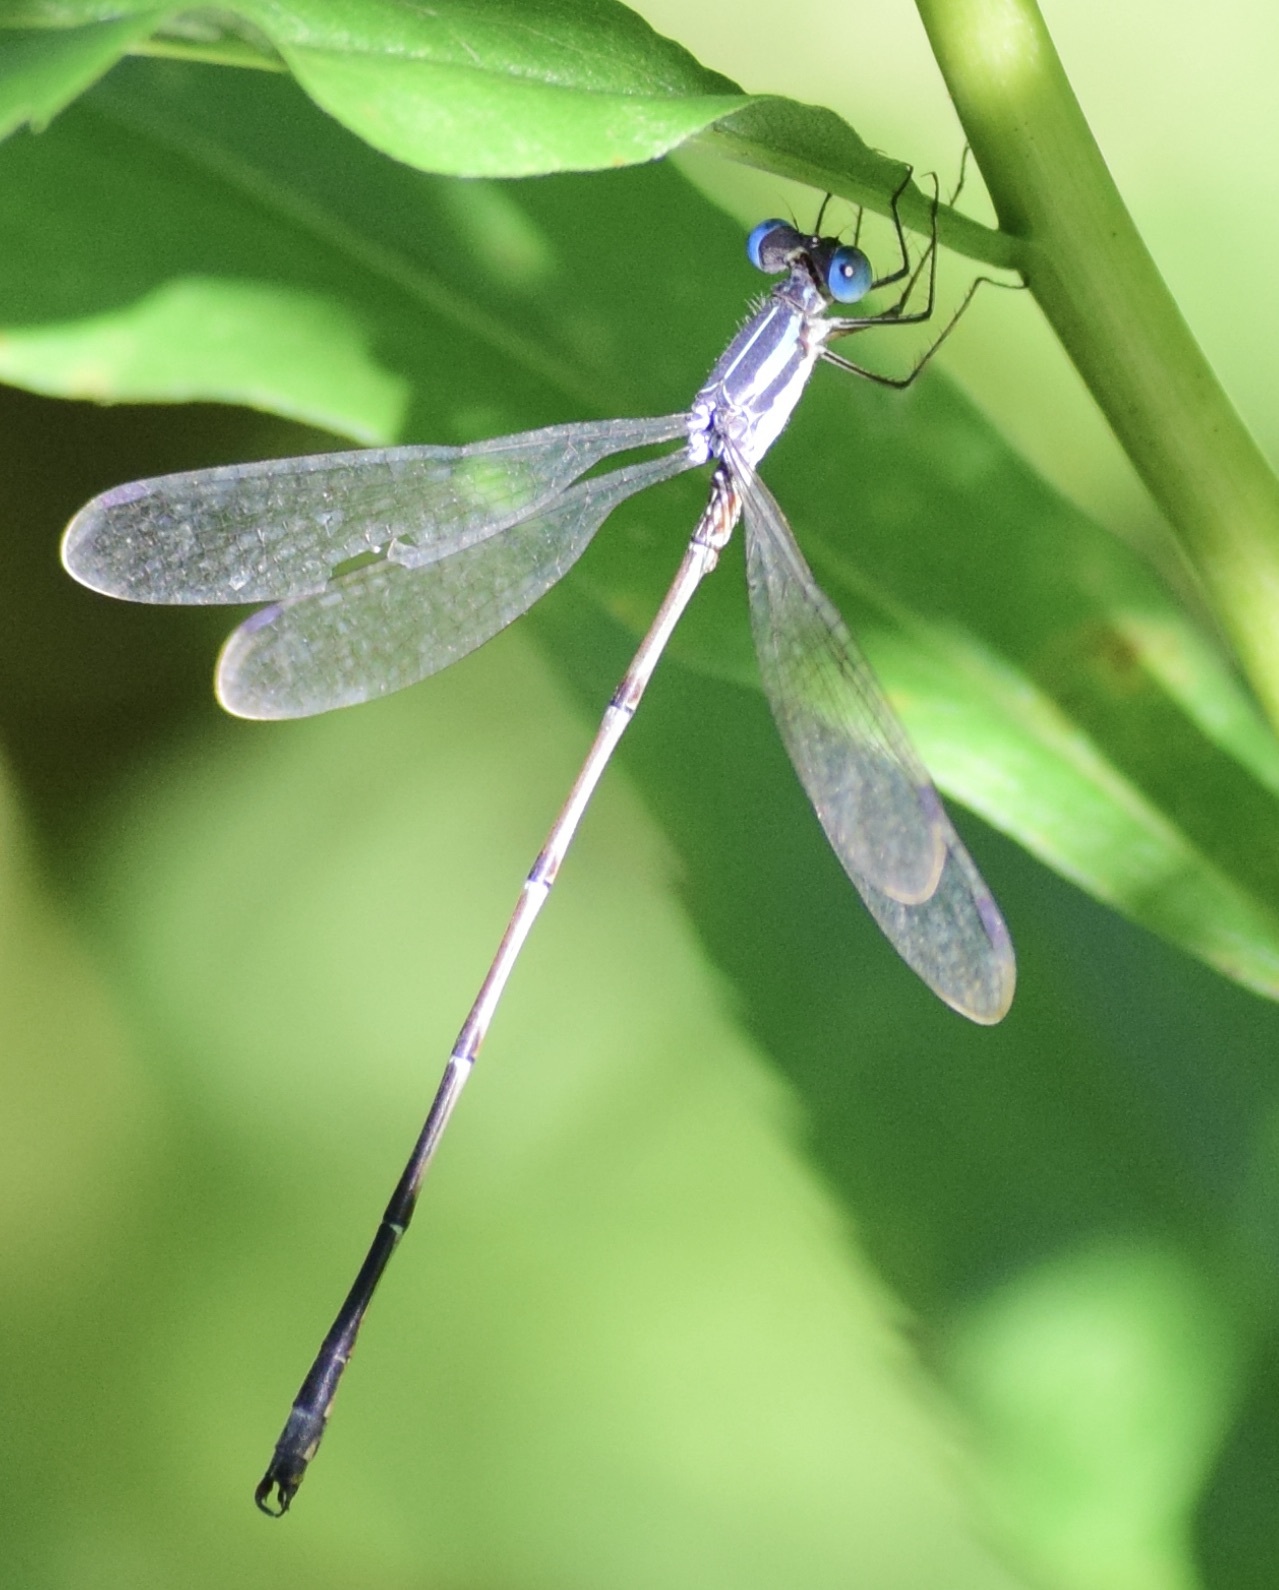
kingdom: Animalia
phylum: Arthropoda
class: Insecta
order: Odonata
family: Lestidae
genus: Lestes
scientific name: Lestes rectangularis
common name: Slender spreadwing
